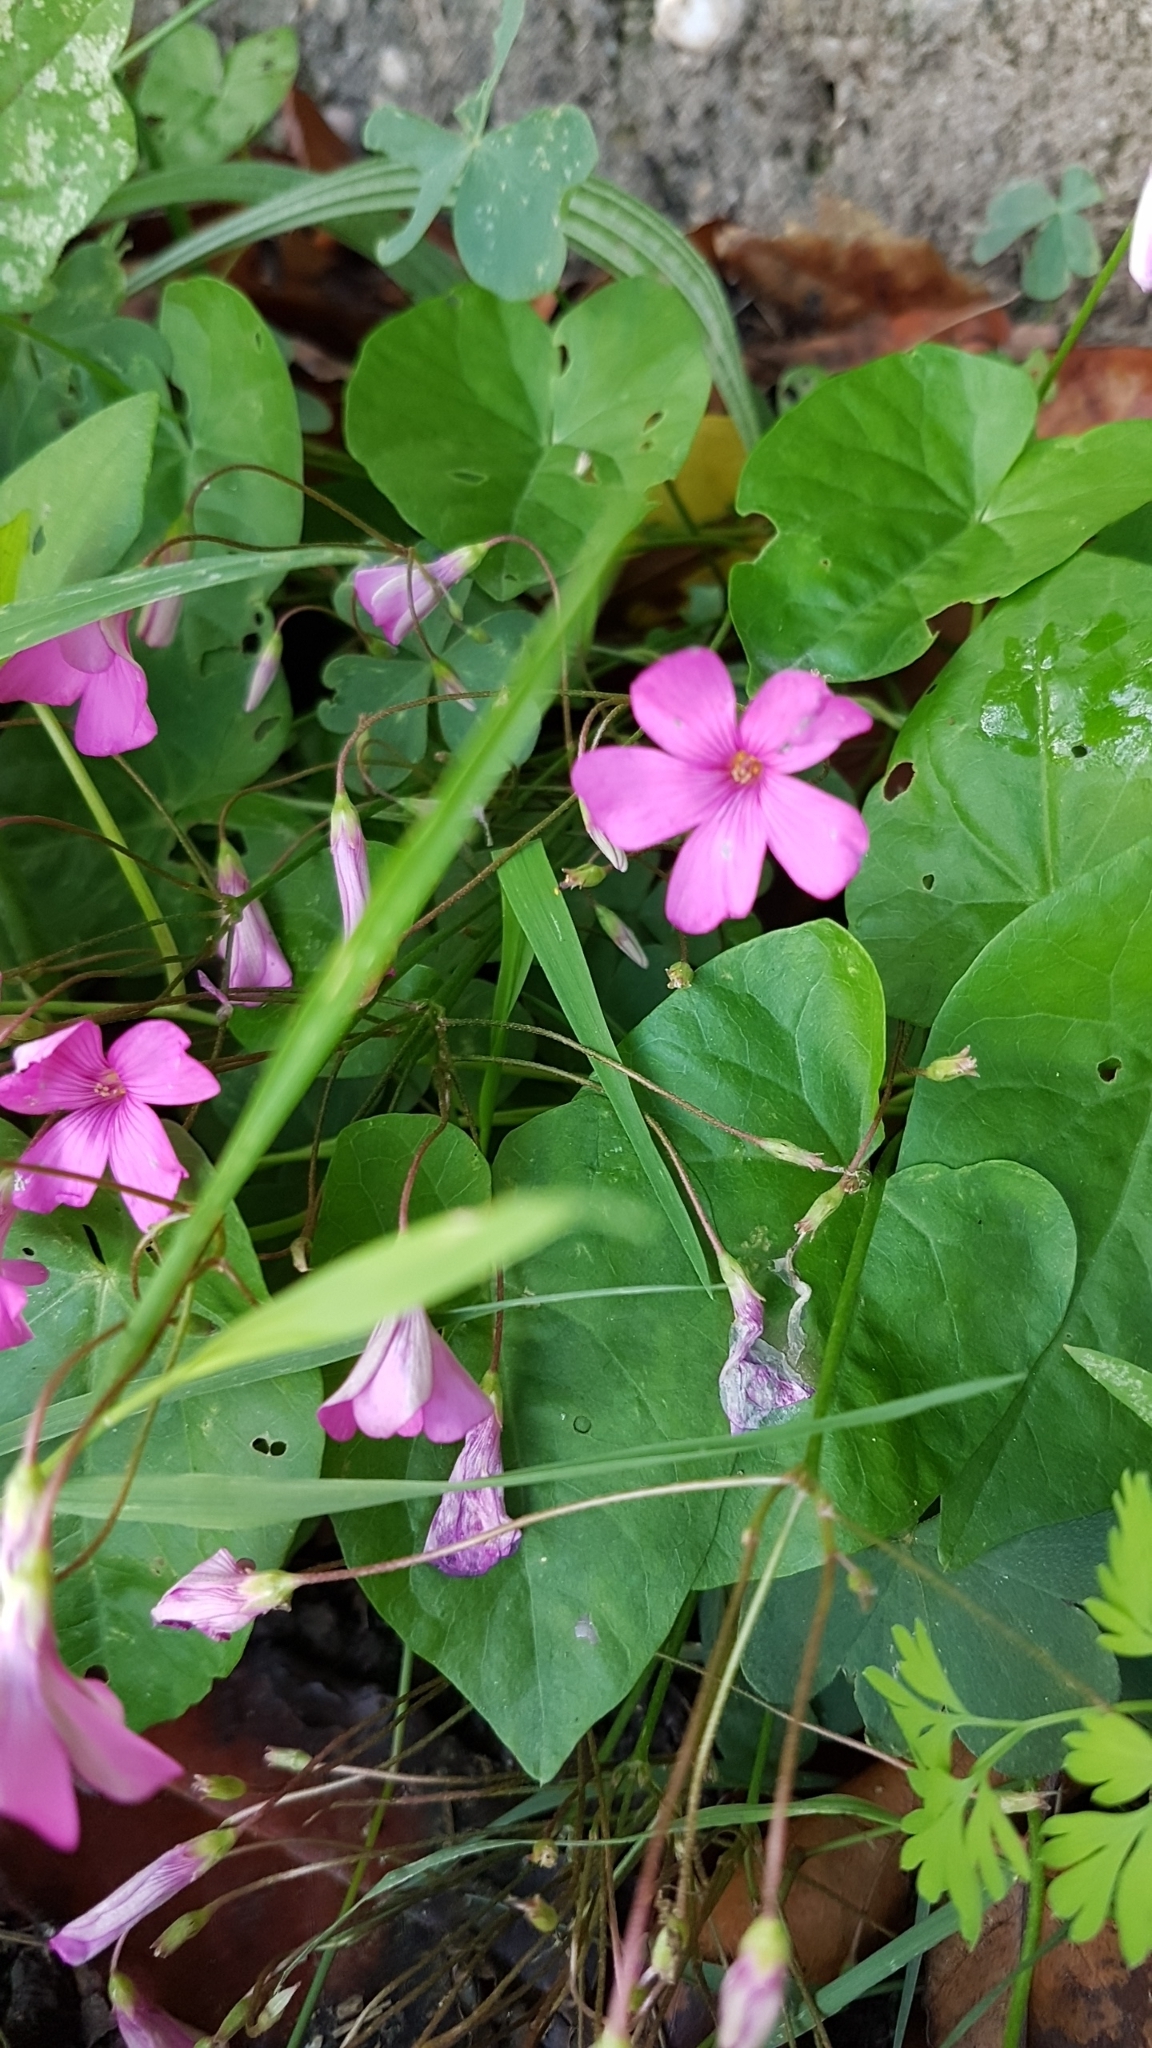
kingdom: Plantae
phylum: Tracheophyta
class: Magnoliopsida
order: Oxalidales
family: Oxalidaceae
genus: Oxalis
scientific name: Oxalis articulata
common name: Pink-sorrel
